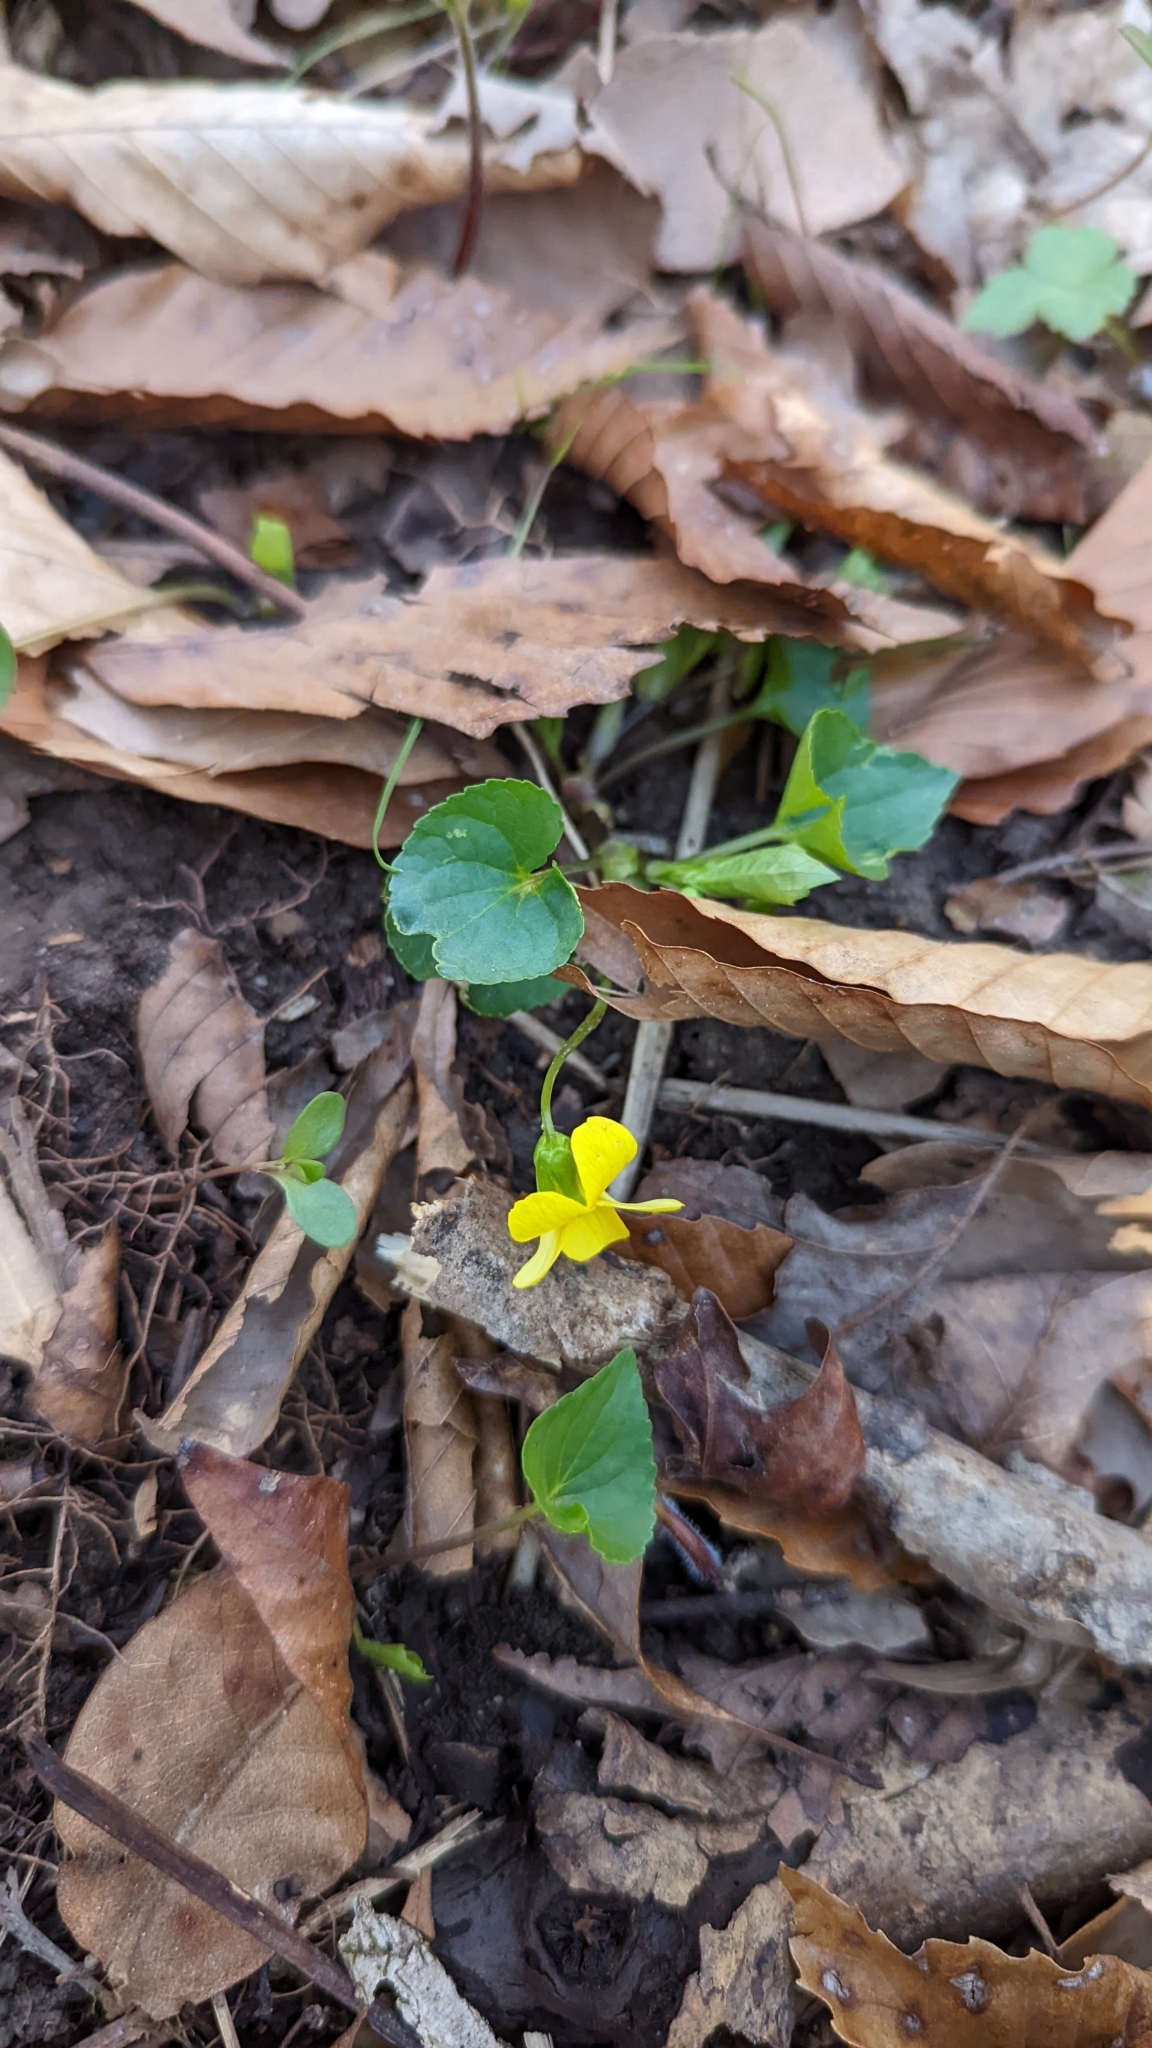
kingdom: Plantae
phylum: Tracheophyta
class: Magnoliopsida
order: Malpighiales
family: Violaceae
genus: Viola
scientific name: Viola eriocarpa
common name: Smooth yellow violet
